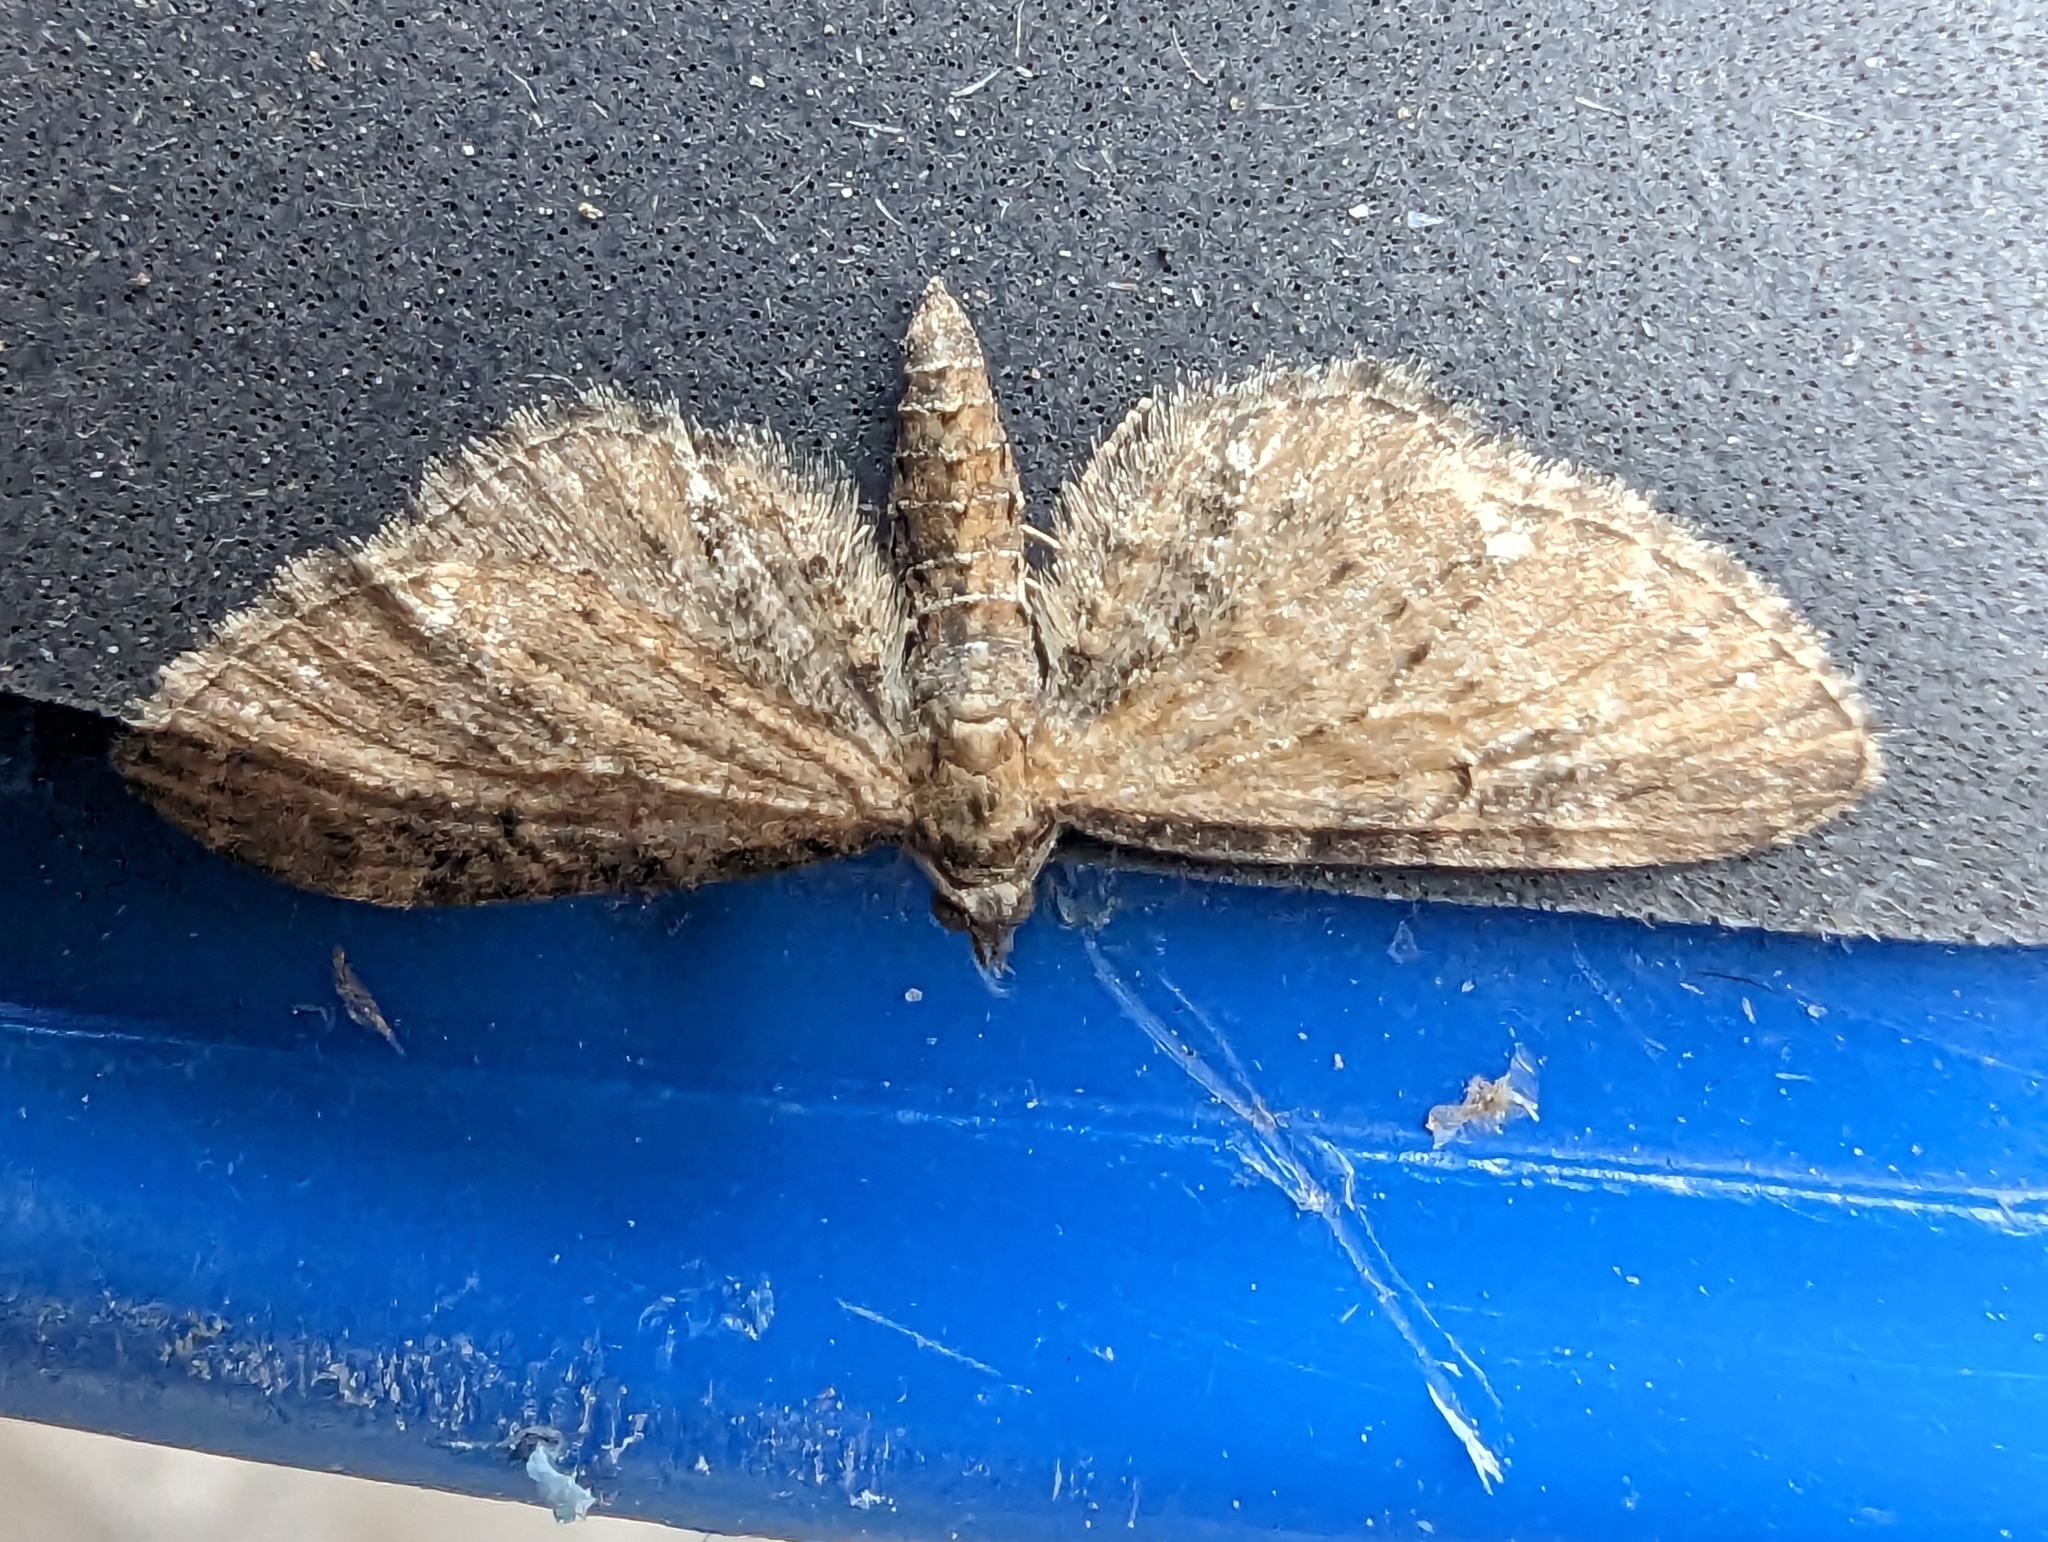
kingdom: Animalia
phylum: Arthropoda
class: Insecta
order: Lepidoptera
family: Geometridae
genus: Eupithecia
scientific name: Eupithecia vulgata
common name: Common pug
